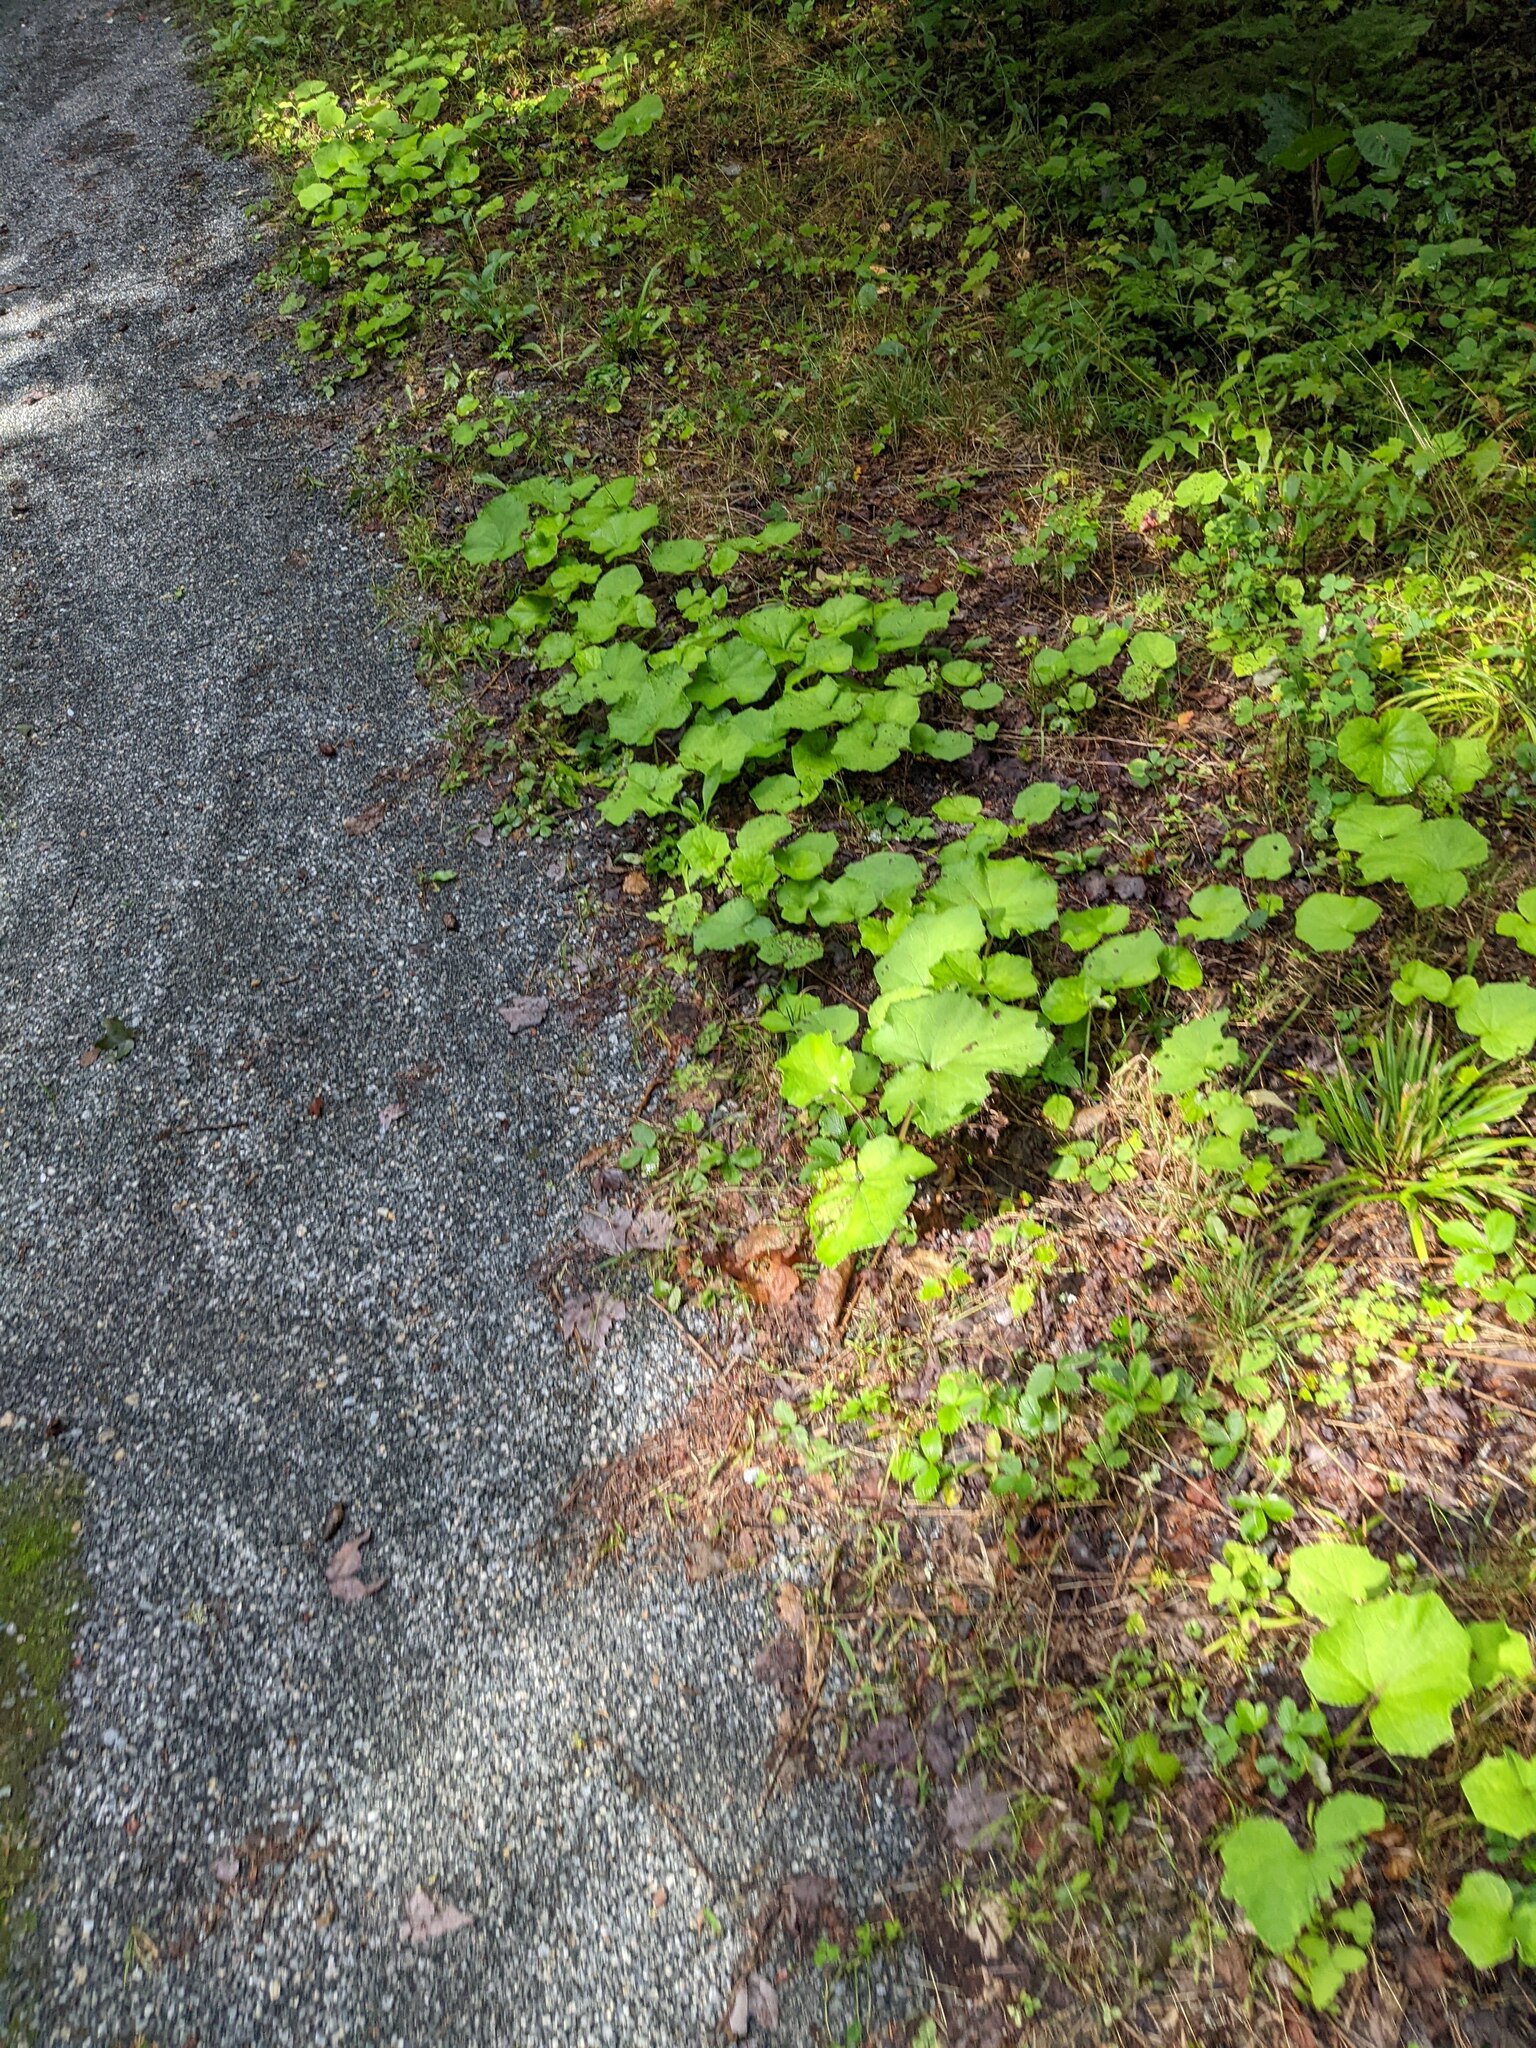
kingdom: Plantae
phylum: Tracheophyta
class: Magnoliopsida
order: Asterales
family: Asteraceae
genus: Tussilago
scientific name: Tussilago farfara
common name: Coltsfoot
